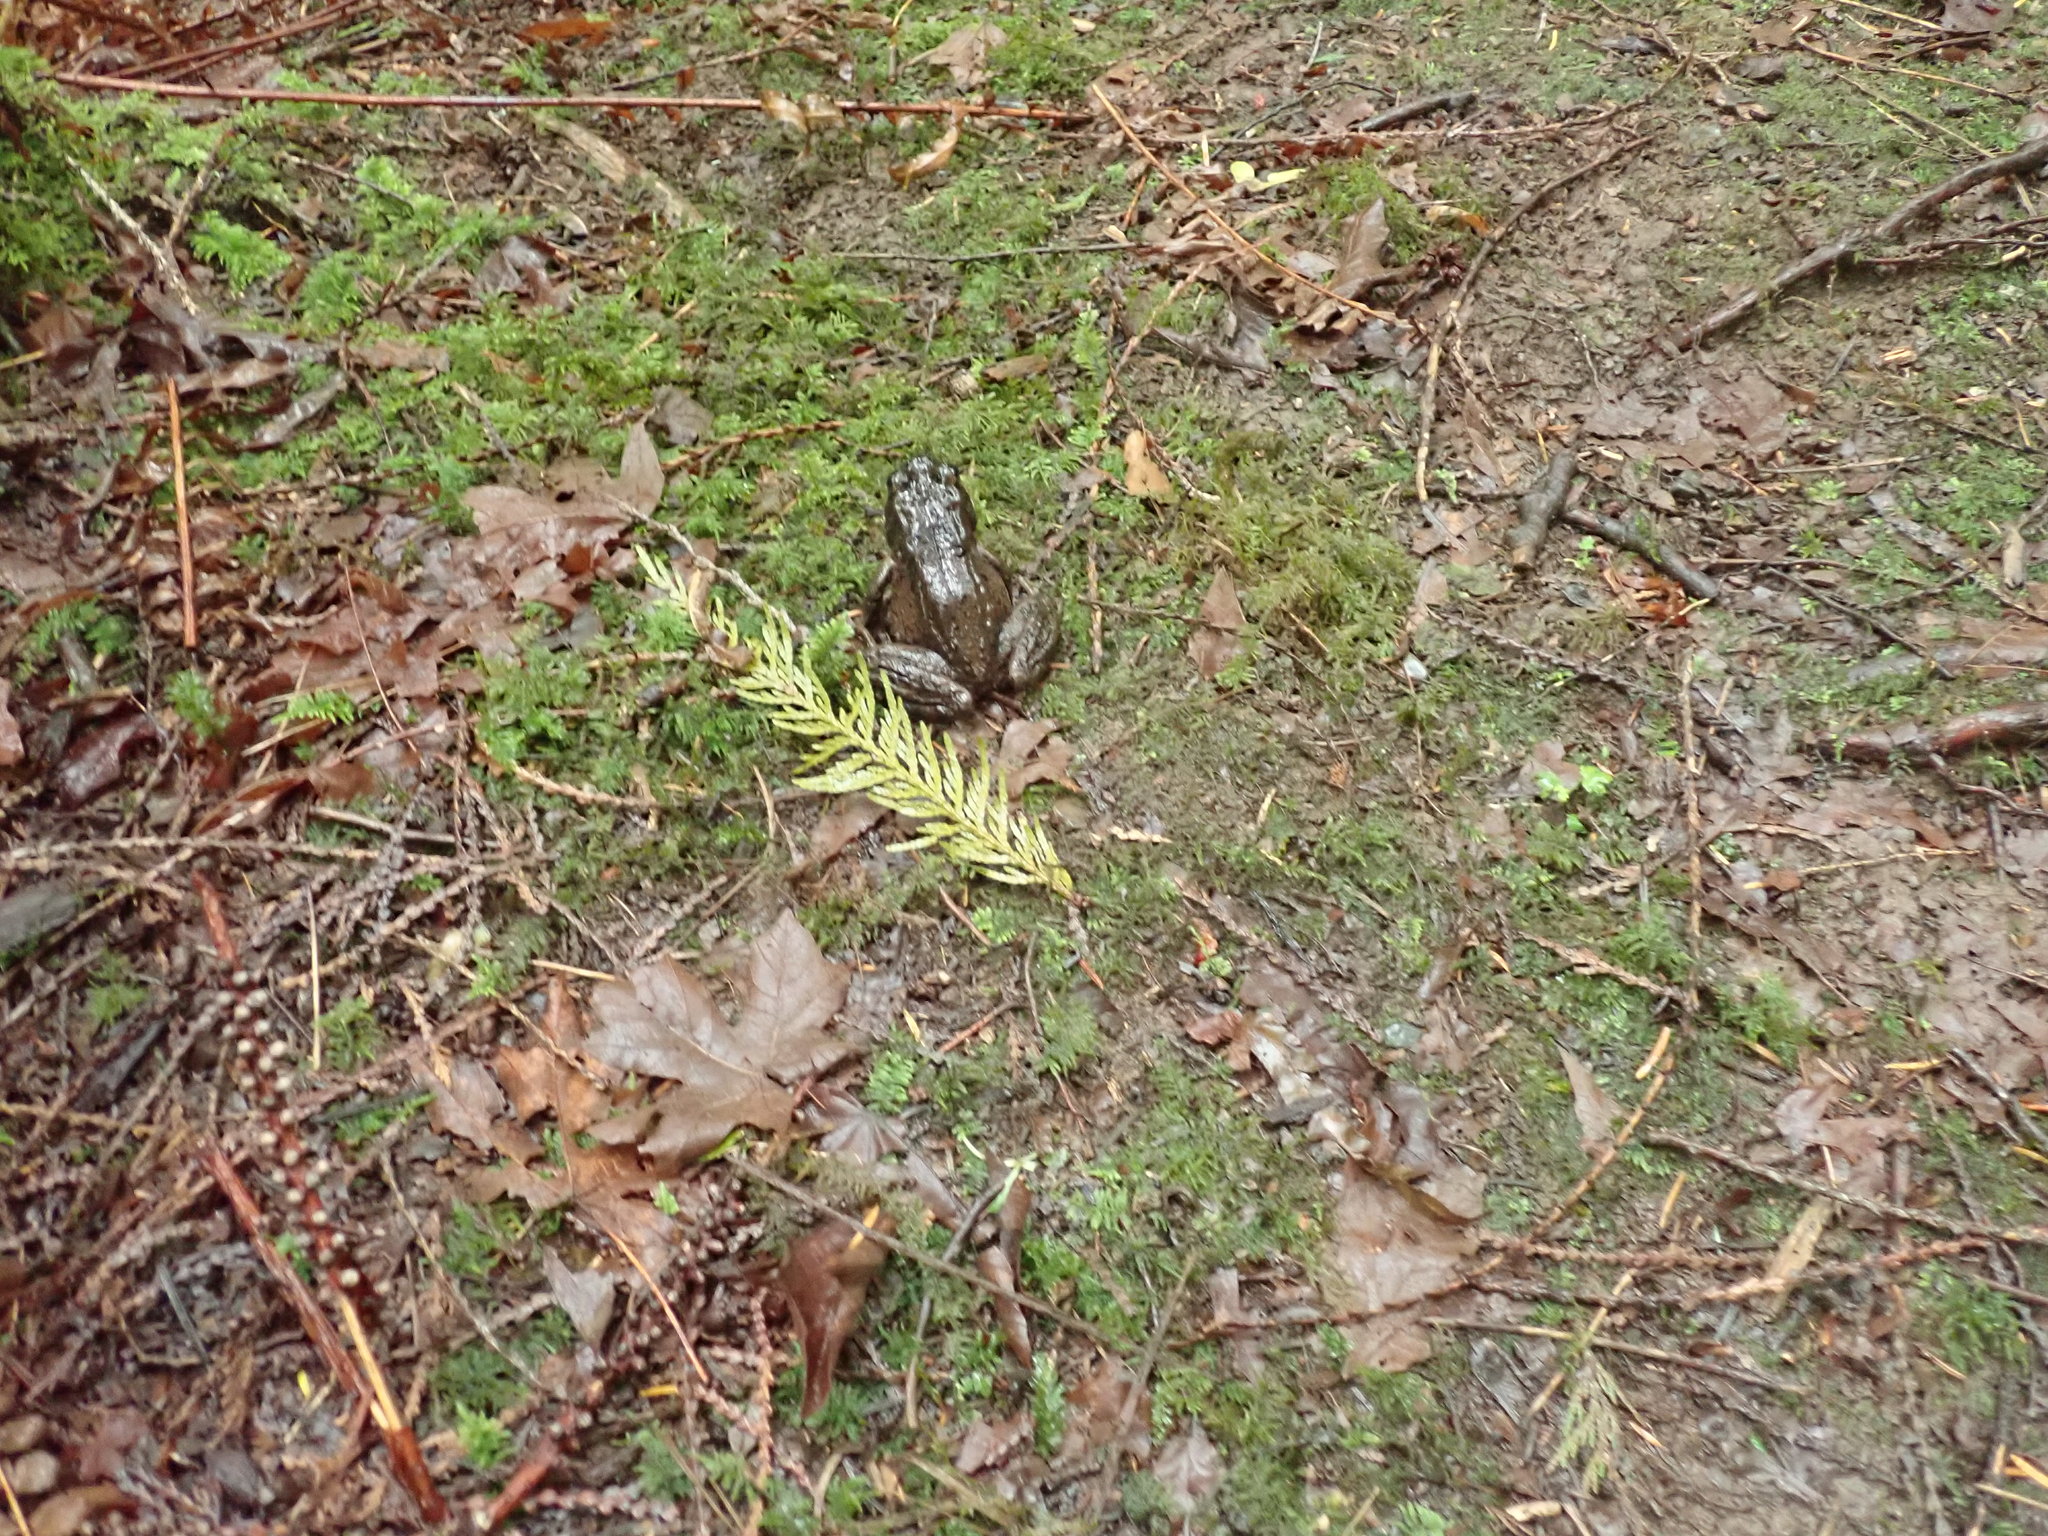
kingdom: Animalia
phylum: Chordata
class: Amphibia
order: Anura
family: Ranidae
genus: Rana
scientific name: Rana aurora
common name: Red-legged frog
